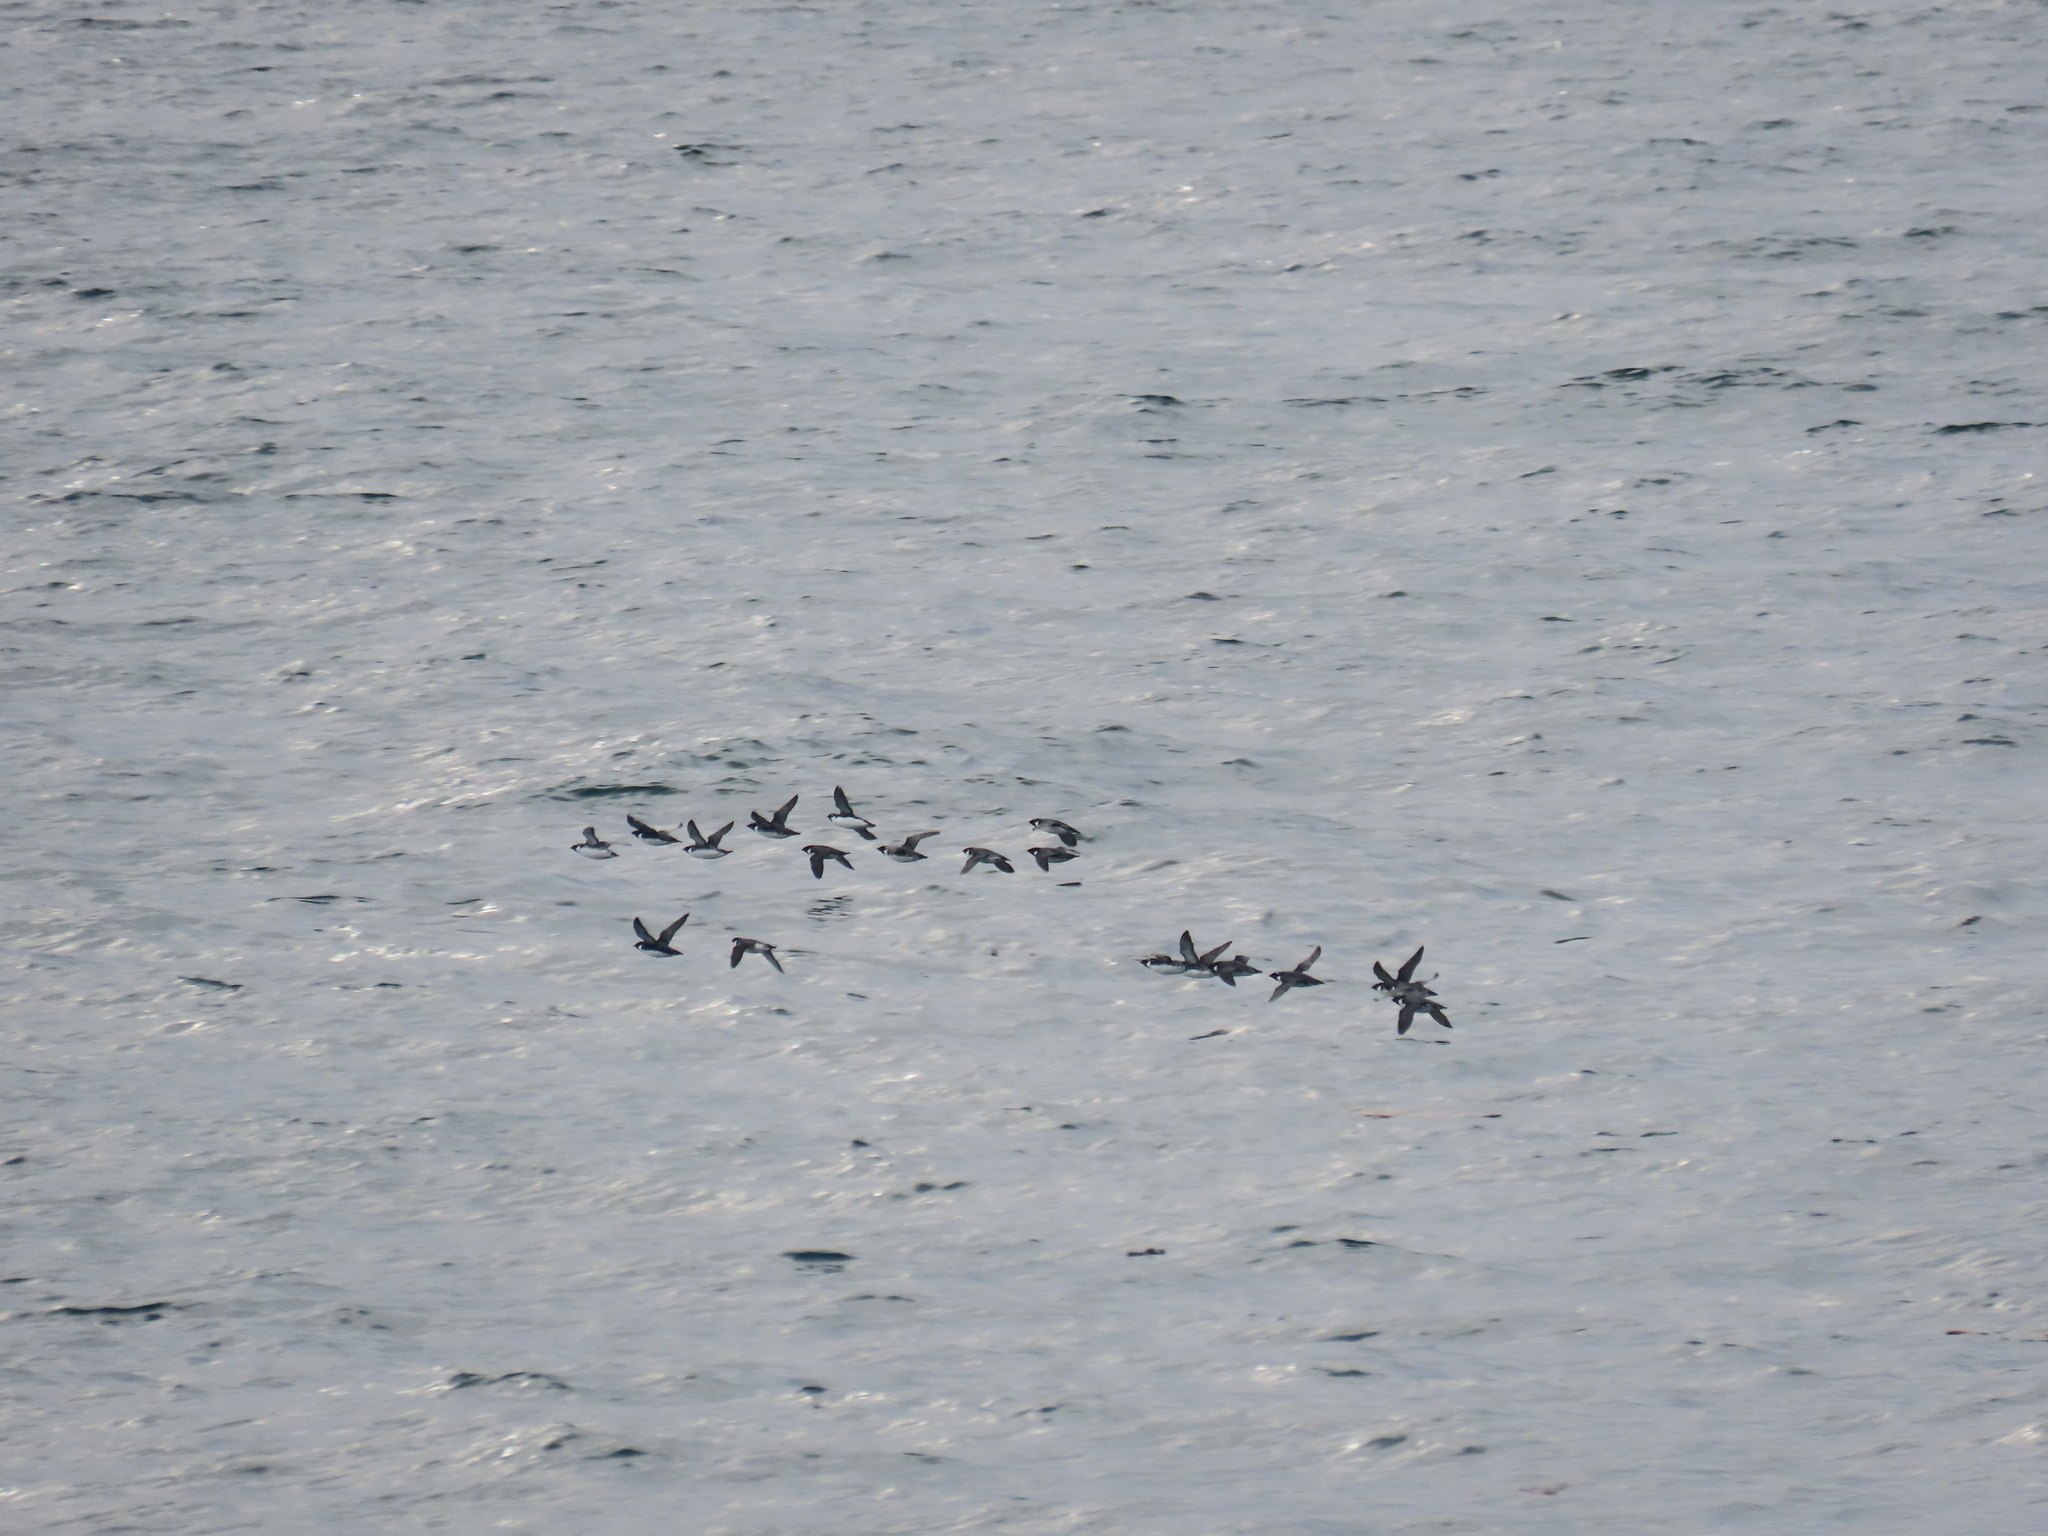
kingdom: Animalia
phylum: Chordata
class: Aves
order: Charadriiformes
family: Alcidae
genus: Synthliboramphus
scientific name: Synthliboramphus antiquus
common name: Ancient murrelet
